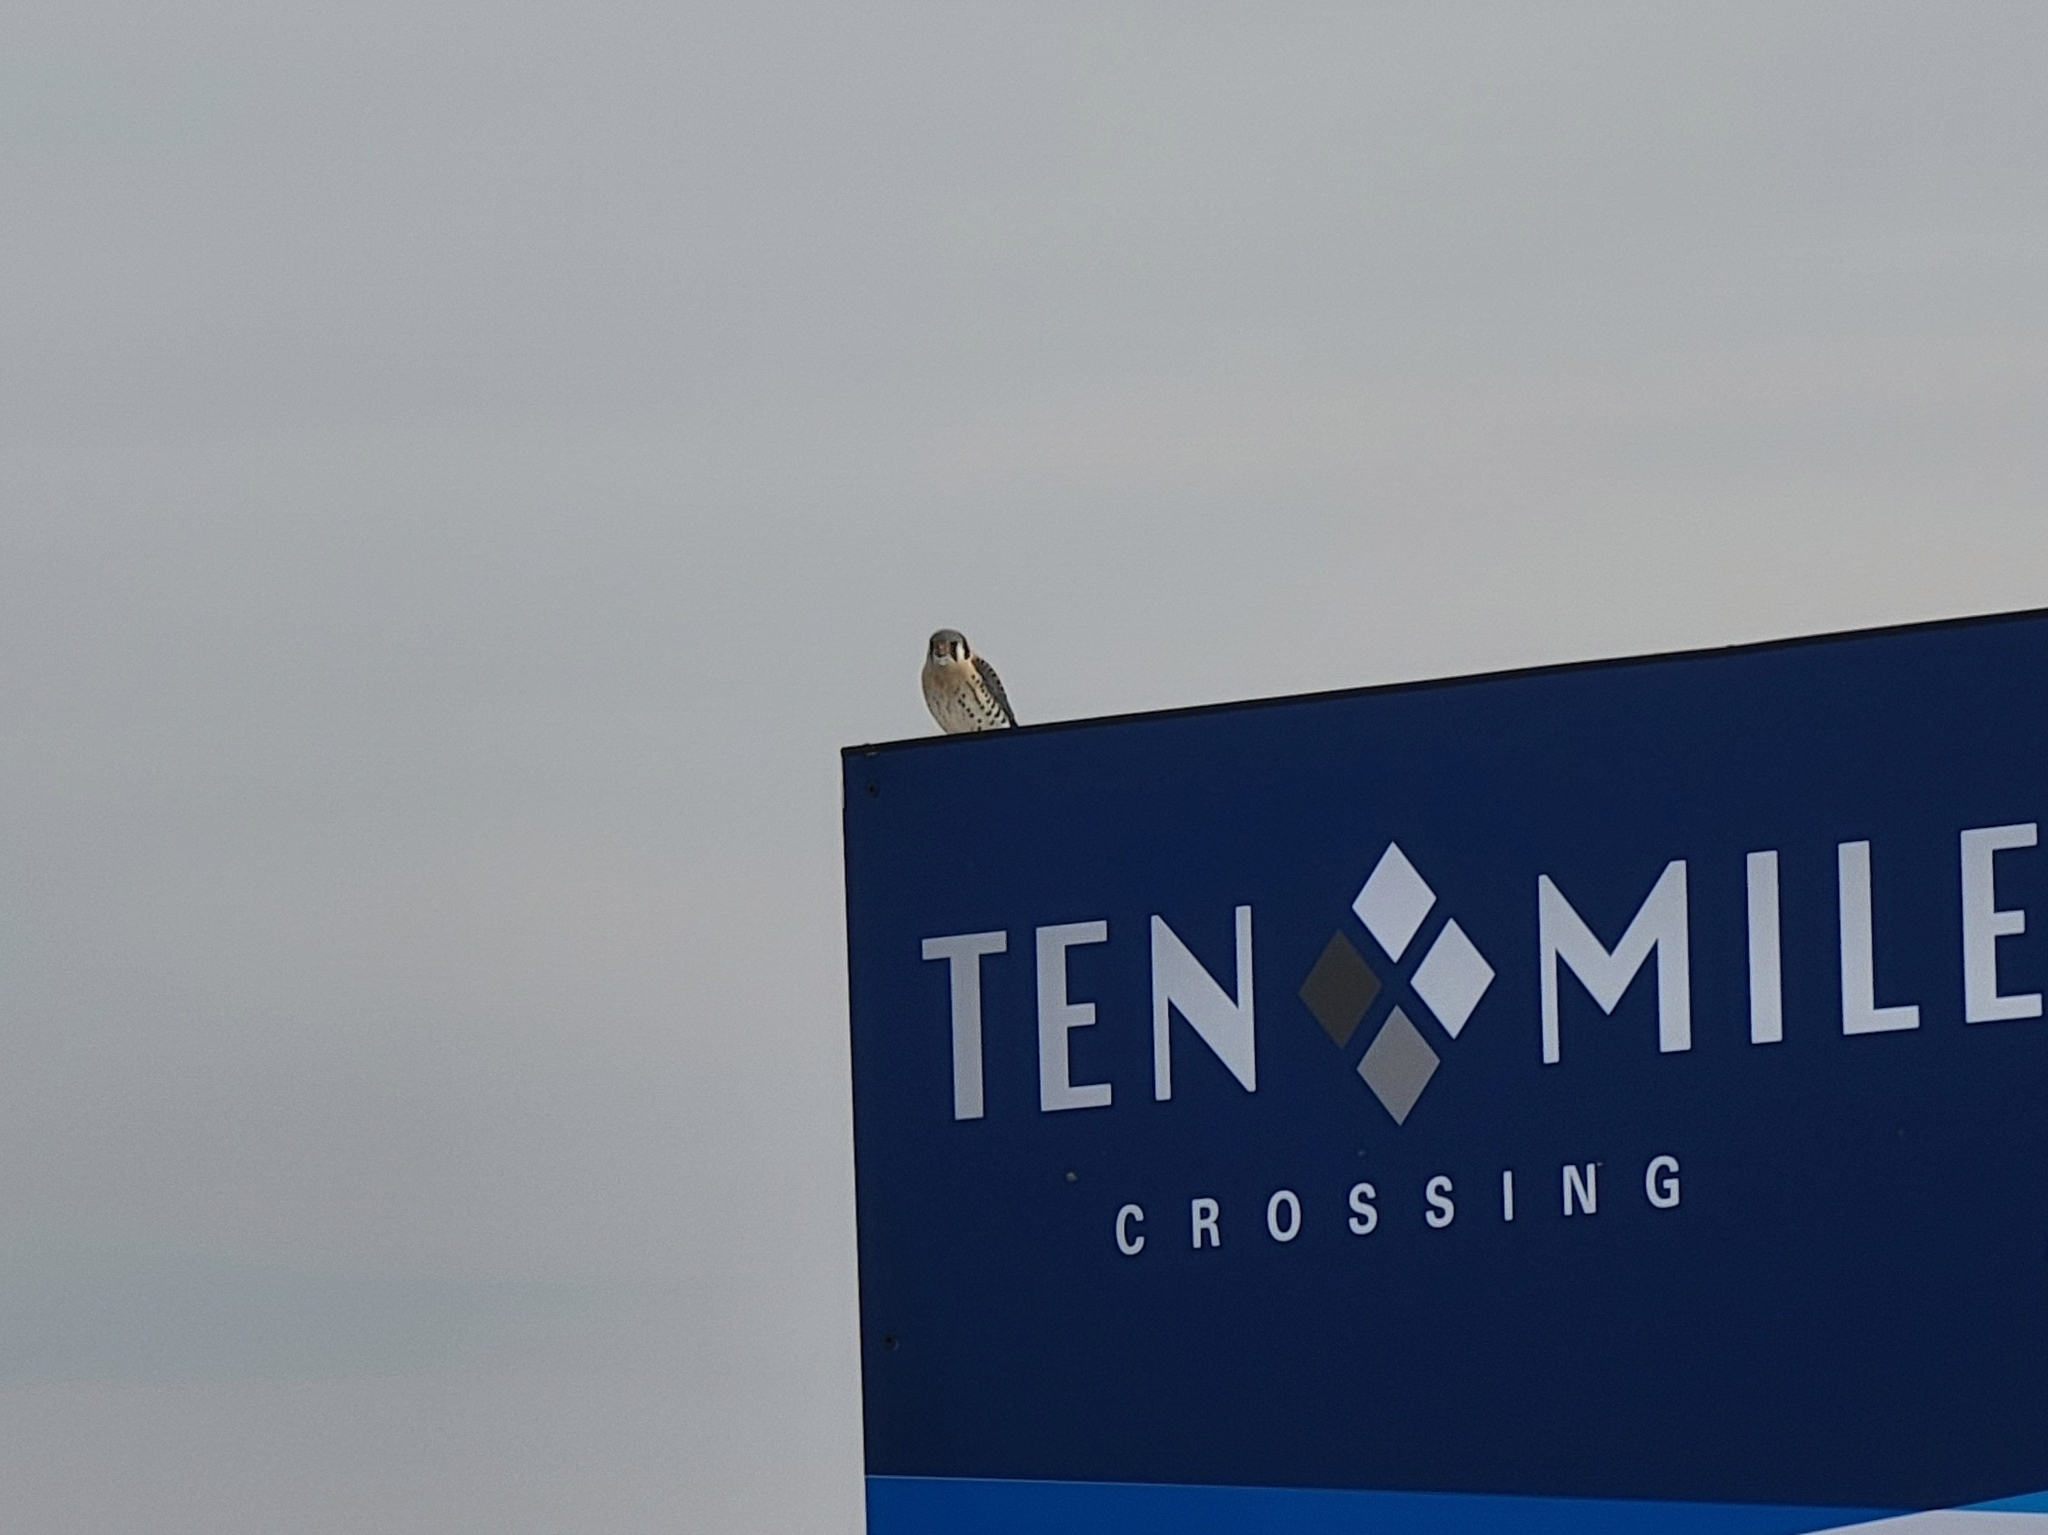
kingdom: Animalia
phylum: Chordata
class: Aves
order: Falconiformes
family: Falconidae
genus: Falco
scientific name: Falco sparverius
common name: American kestrel
